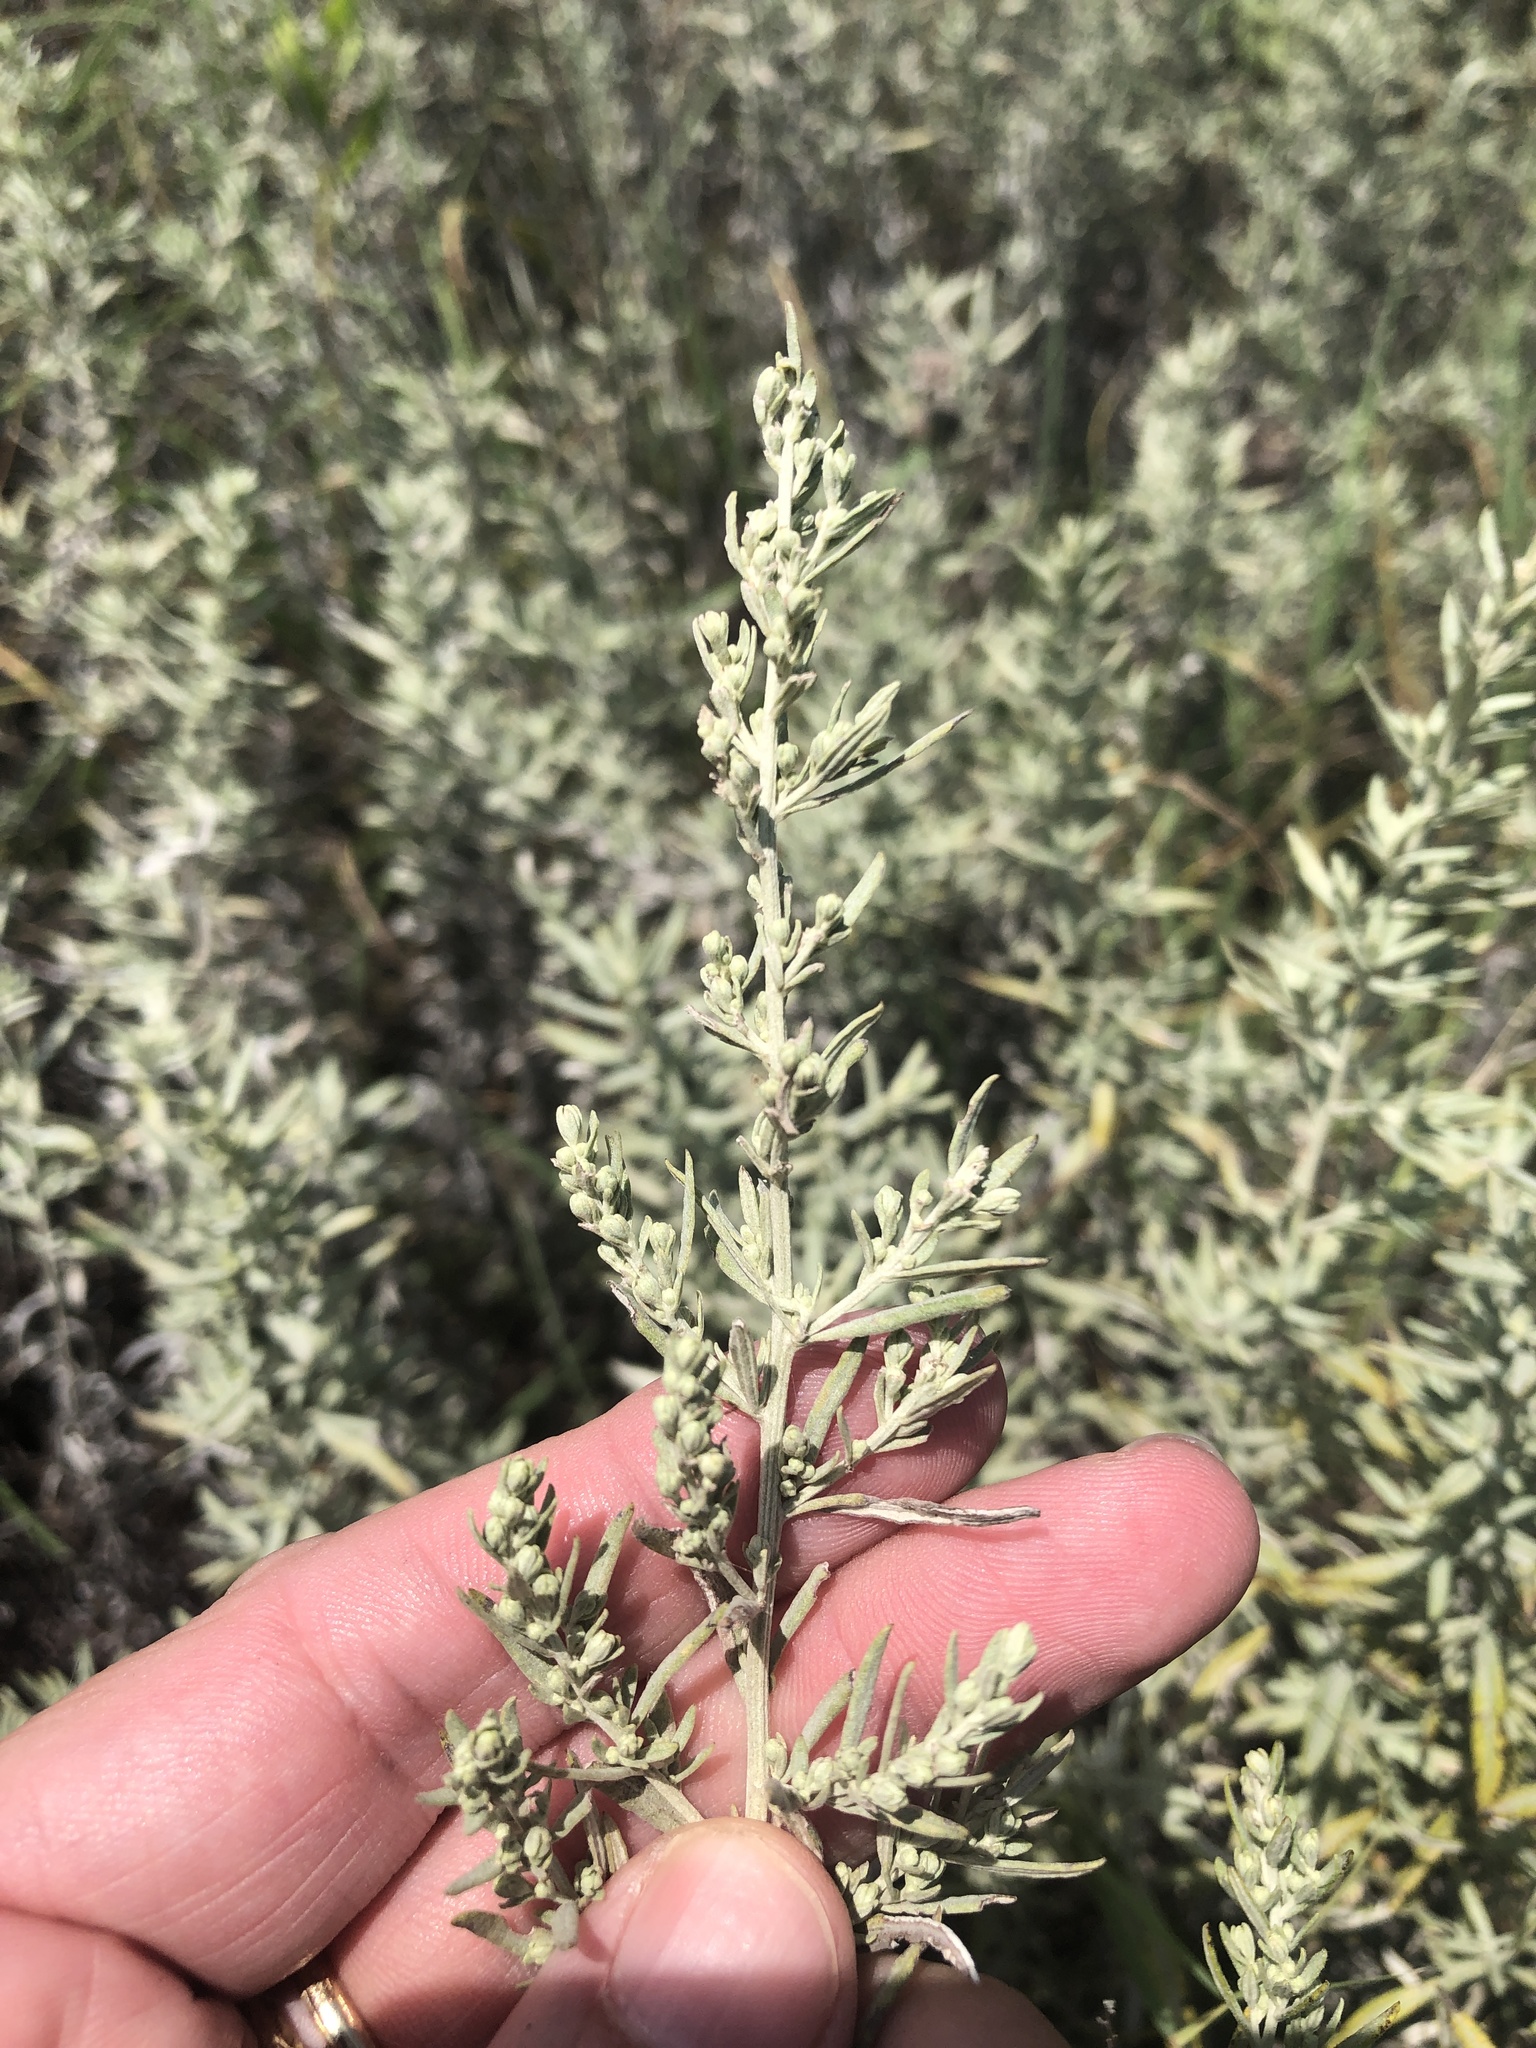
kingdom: Plantae
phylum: Tracheophyta
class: Magnoliopsida
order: Asterales
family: Asteraceae
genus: Artemisia
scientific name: Artemisia ludoviciana
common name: Western mugwort
